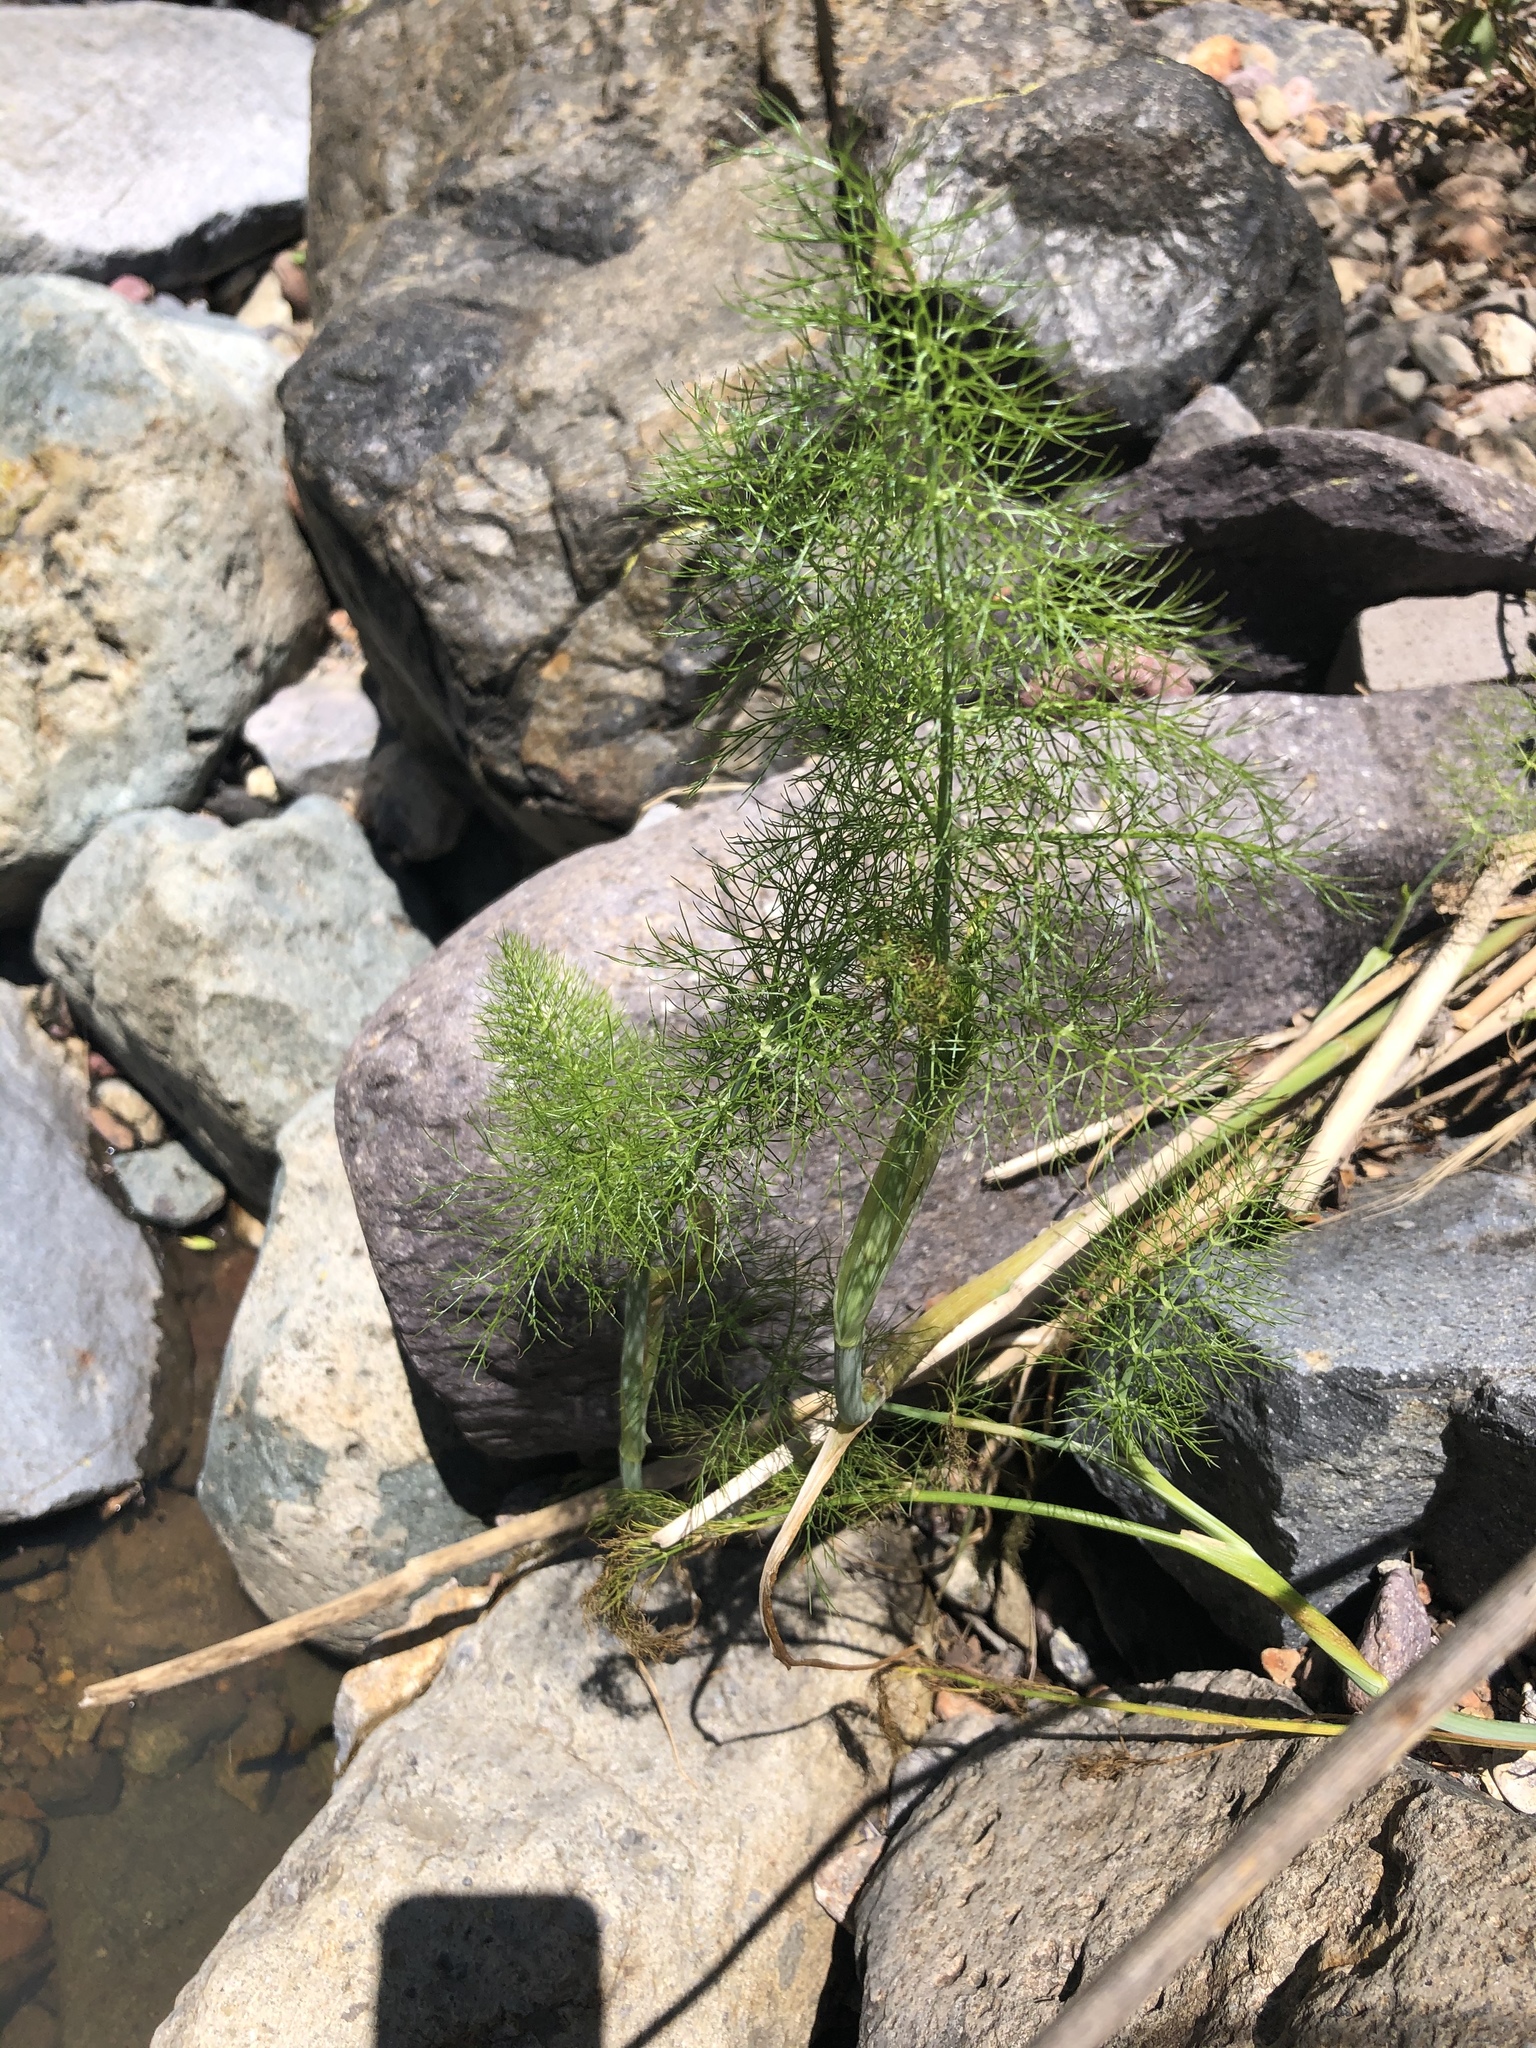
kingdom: Plantae
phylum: Tracheophyta
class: Magnoliopsida
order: Apiales
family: Apiaceae
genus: Foeniculum
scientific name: Foeniculum vulgare
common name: Fennel
